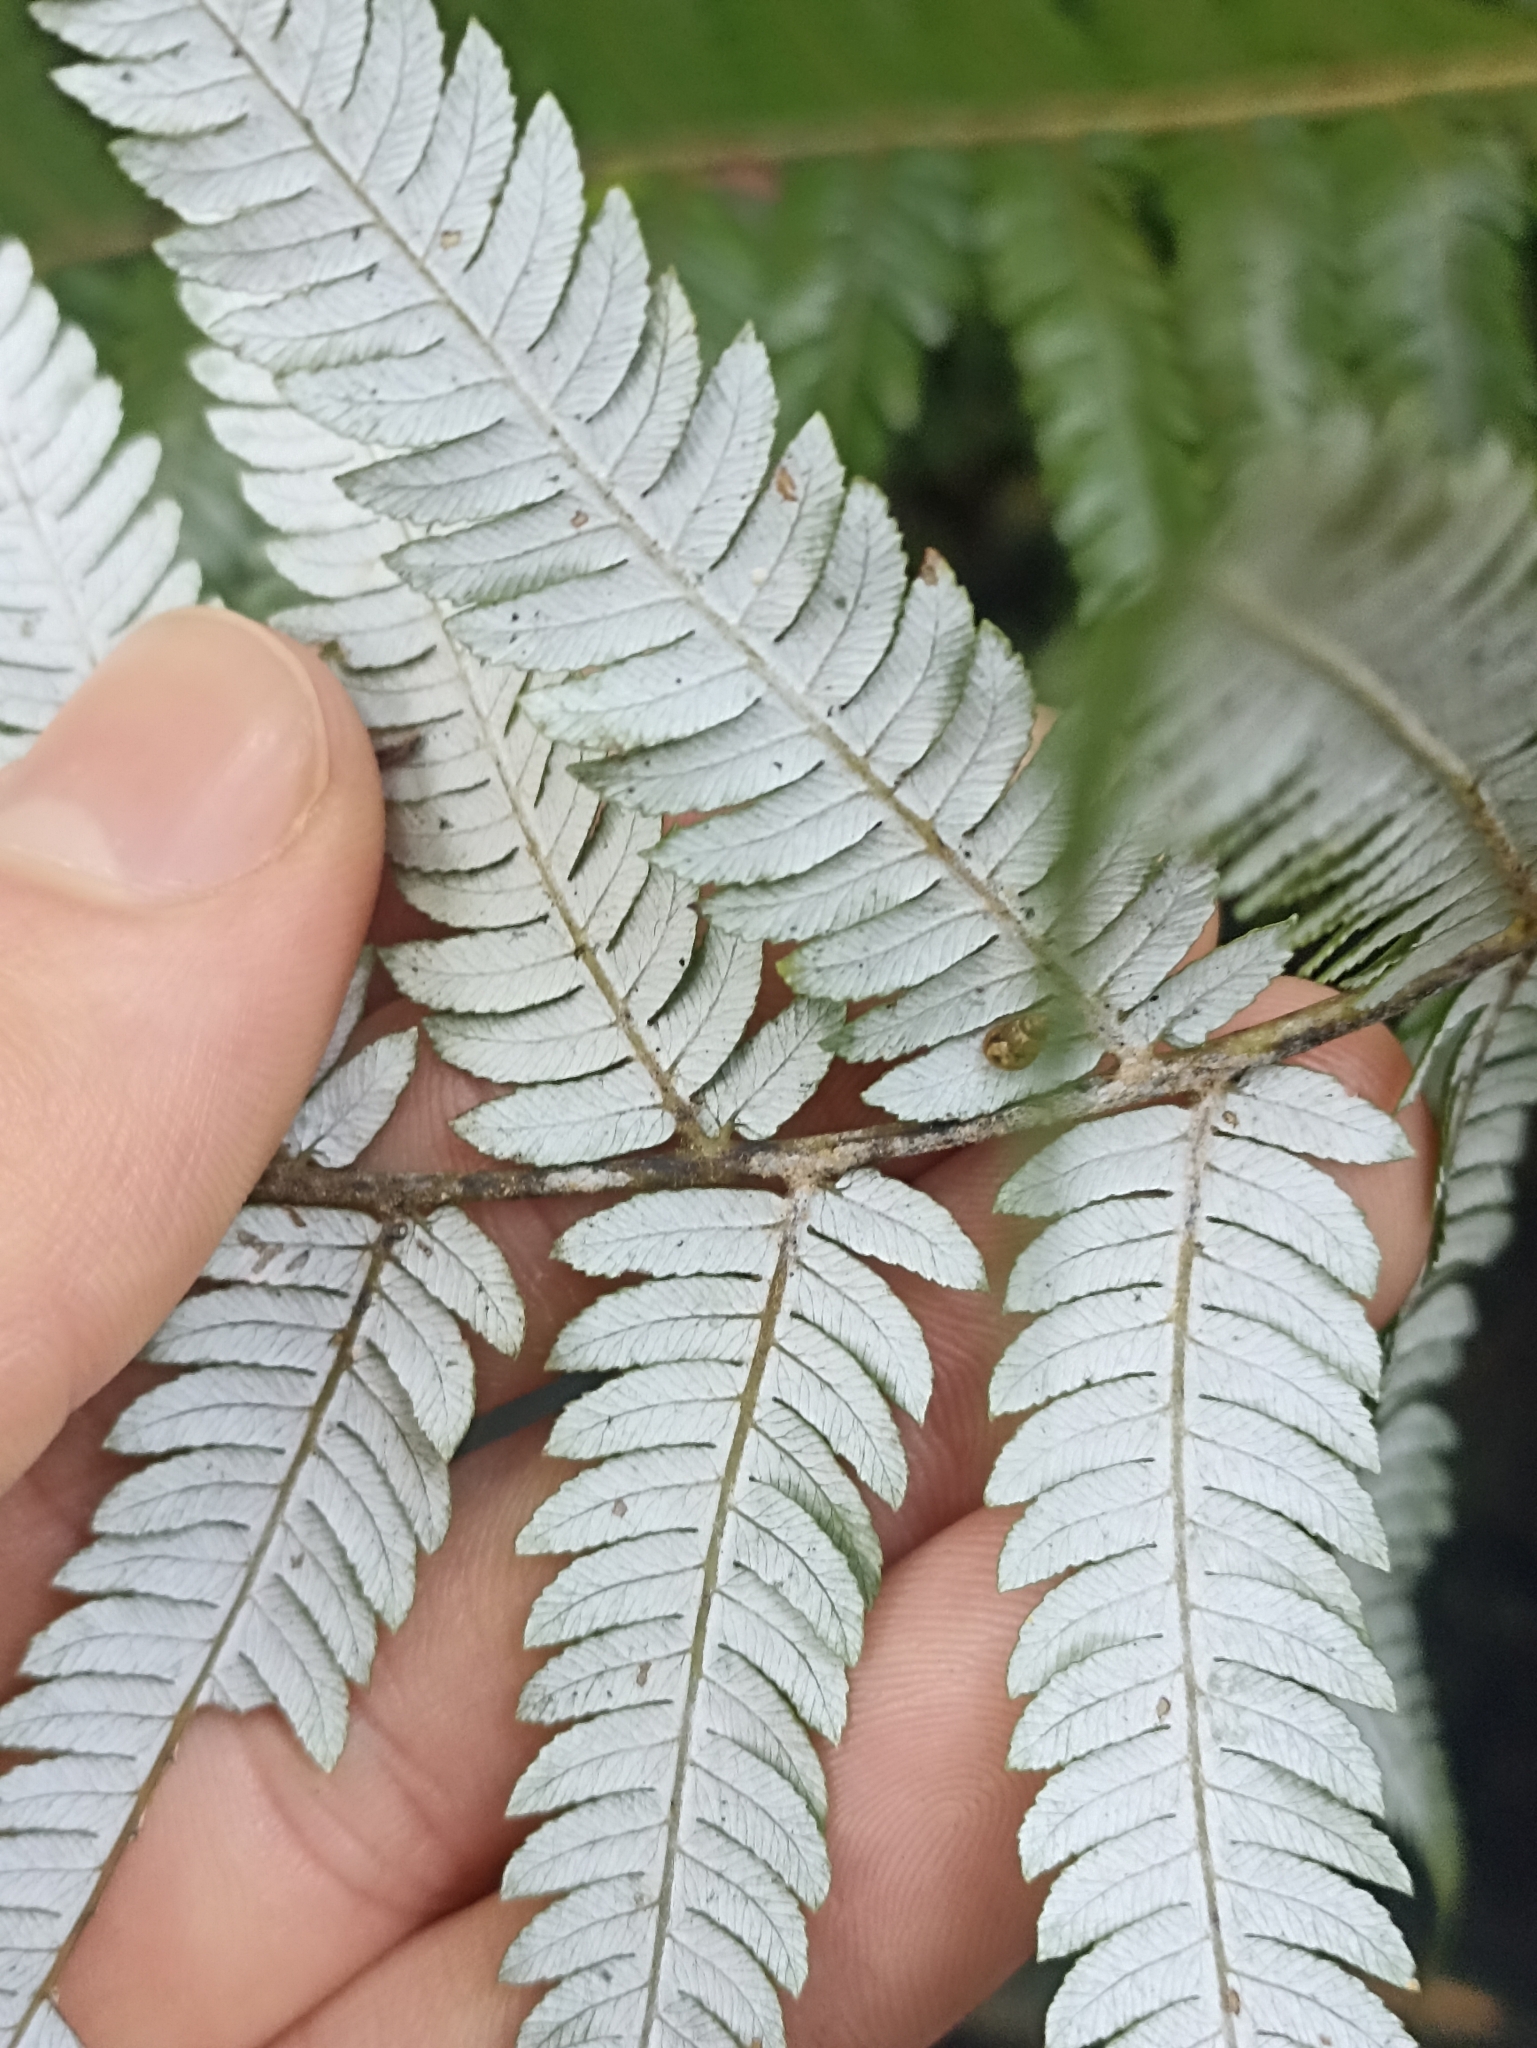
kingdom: Plantae
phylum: Tracheophyta
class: Polypodiopsida
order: Cyatheales
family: Cyatheaceae
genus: Alsophila
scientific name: Alsophila dealbata
